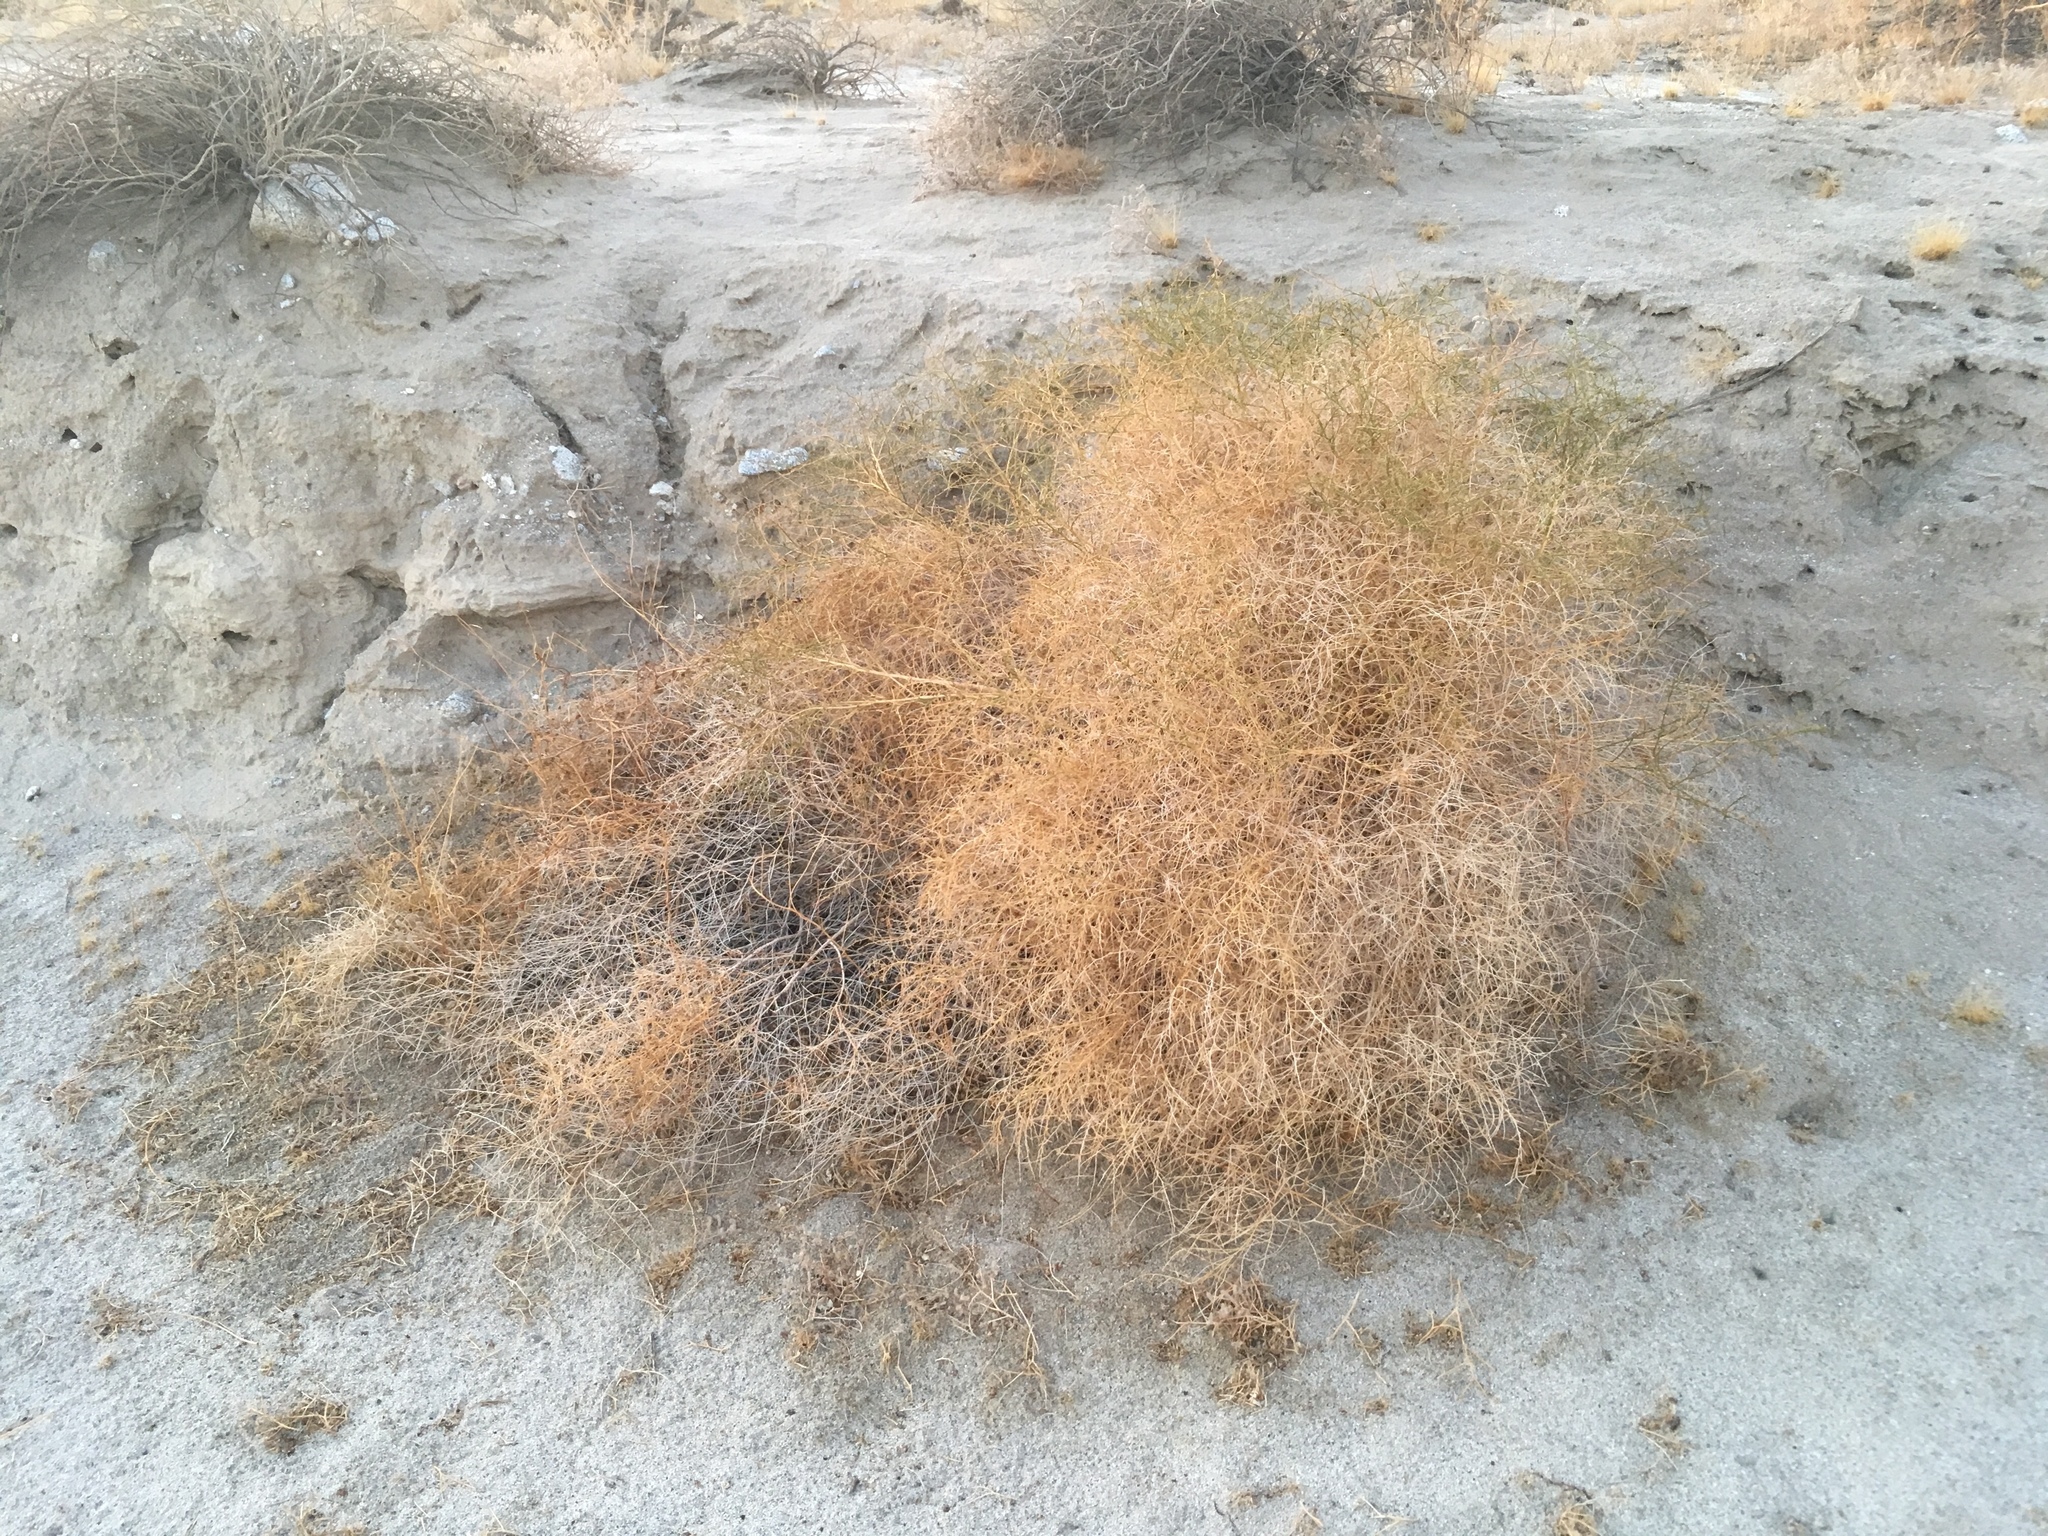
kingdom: Plantae
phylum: Tracheophyta
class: Magnoliopsida
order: Asterales
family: Asteraceae
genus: Ambrosia
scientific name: Ambrosia salsola
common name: Burrobrush
